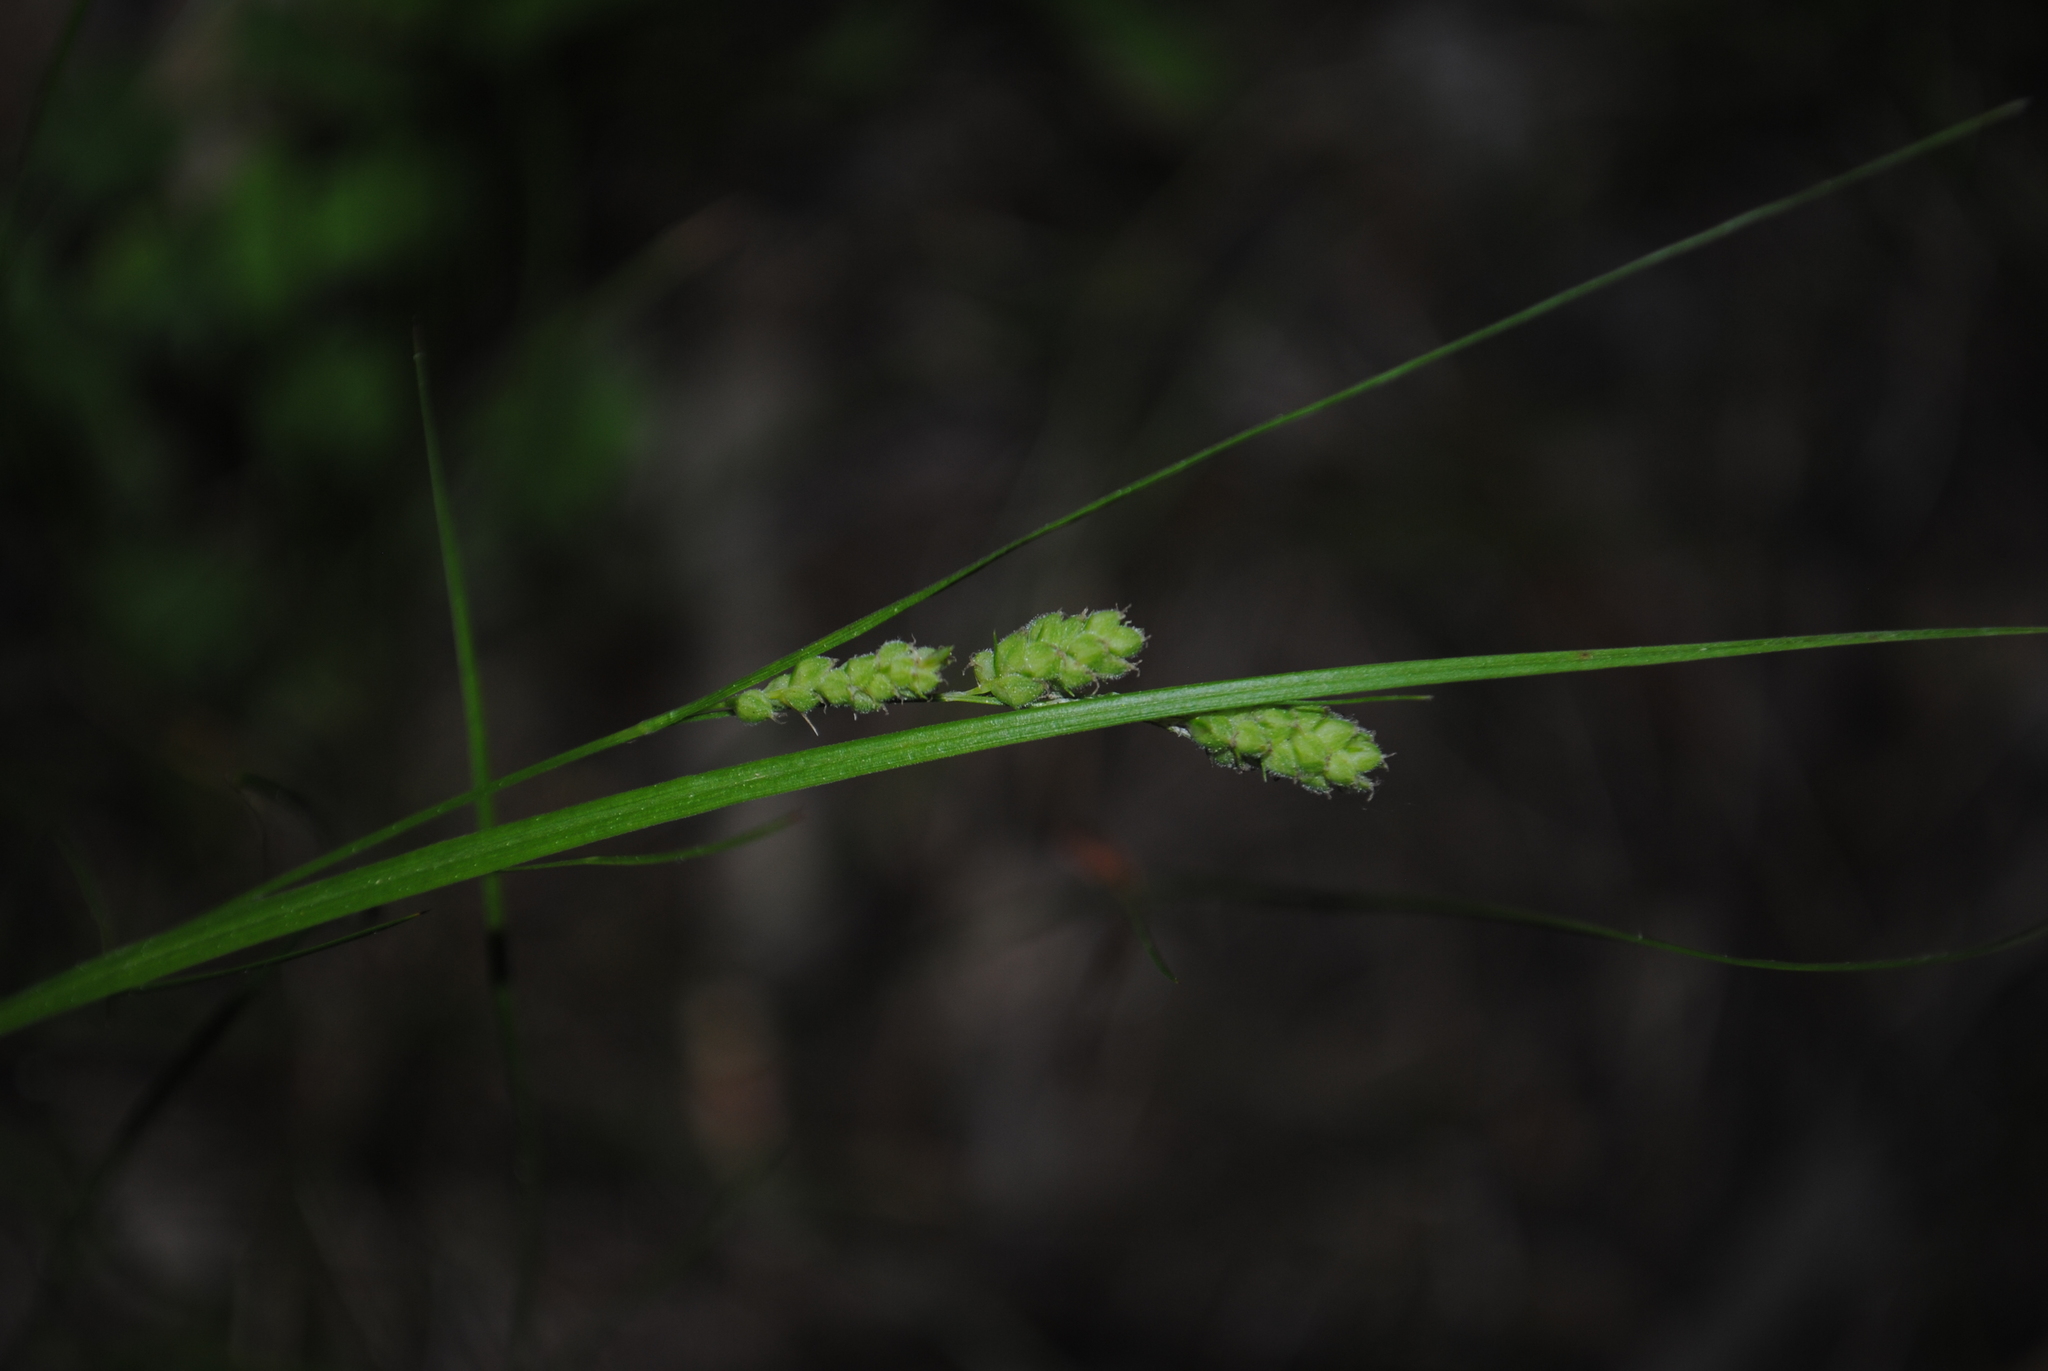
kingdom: Plantae
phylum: Tracheophyta
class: Liliopsida
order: Poales
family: Cyperaceae
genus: Carex
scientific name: Carex swanii
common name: Downy green sedge
